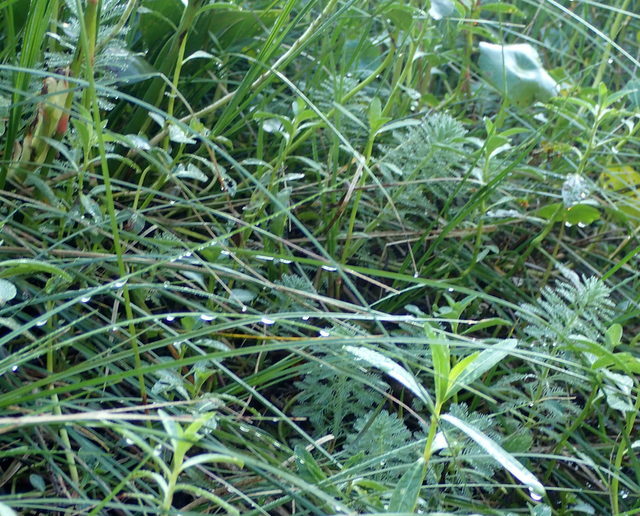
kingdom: Plantae
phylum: Tracheophyta
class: Magnoliopsida
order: Saxifragales
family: Haloragaceae
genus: Myriophyllum
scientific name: Myriophyllum aquaticum
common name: Parrot's feather
